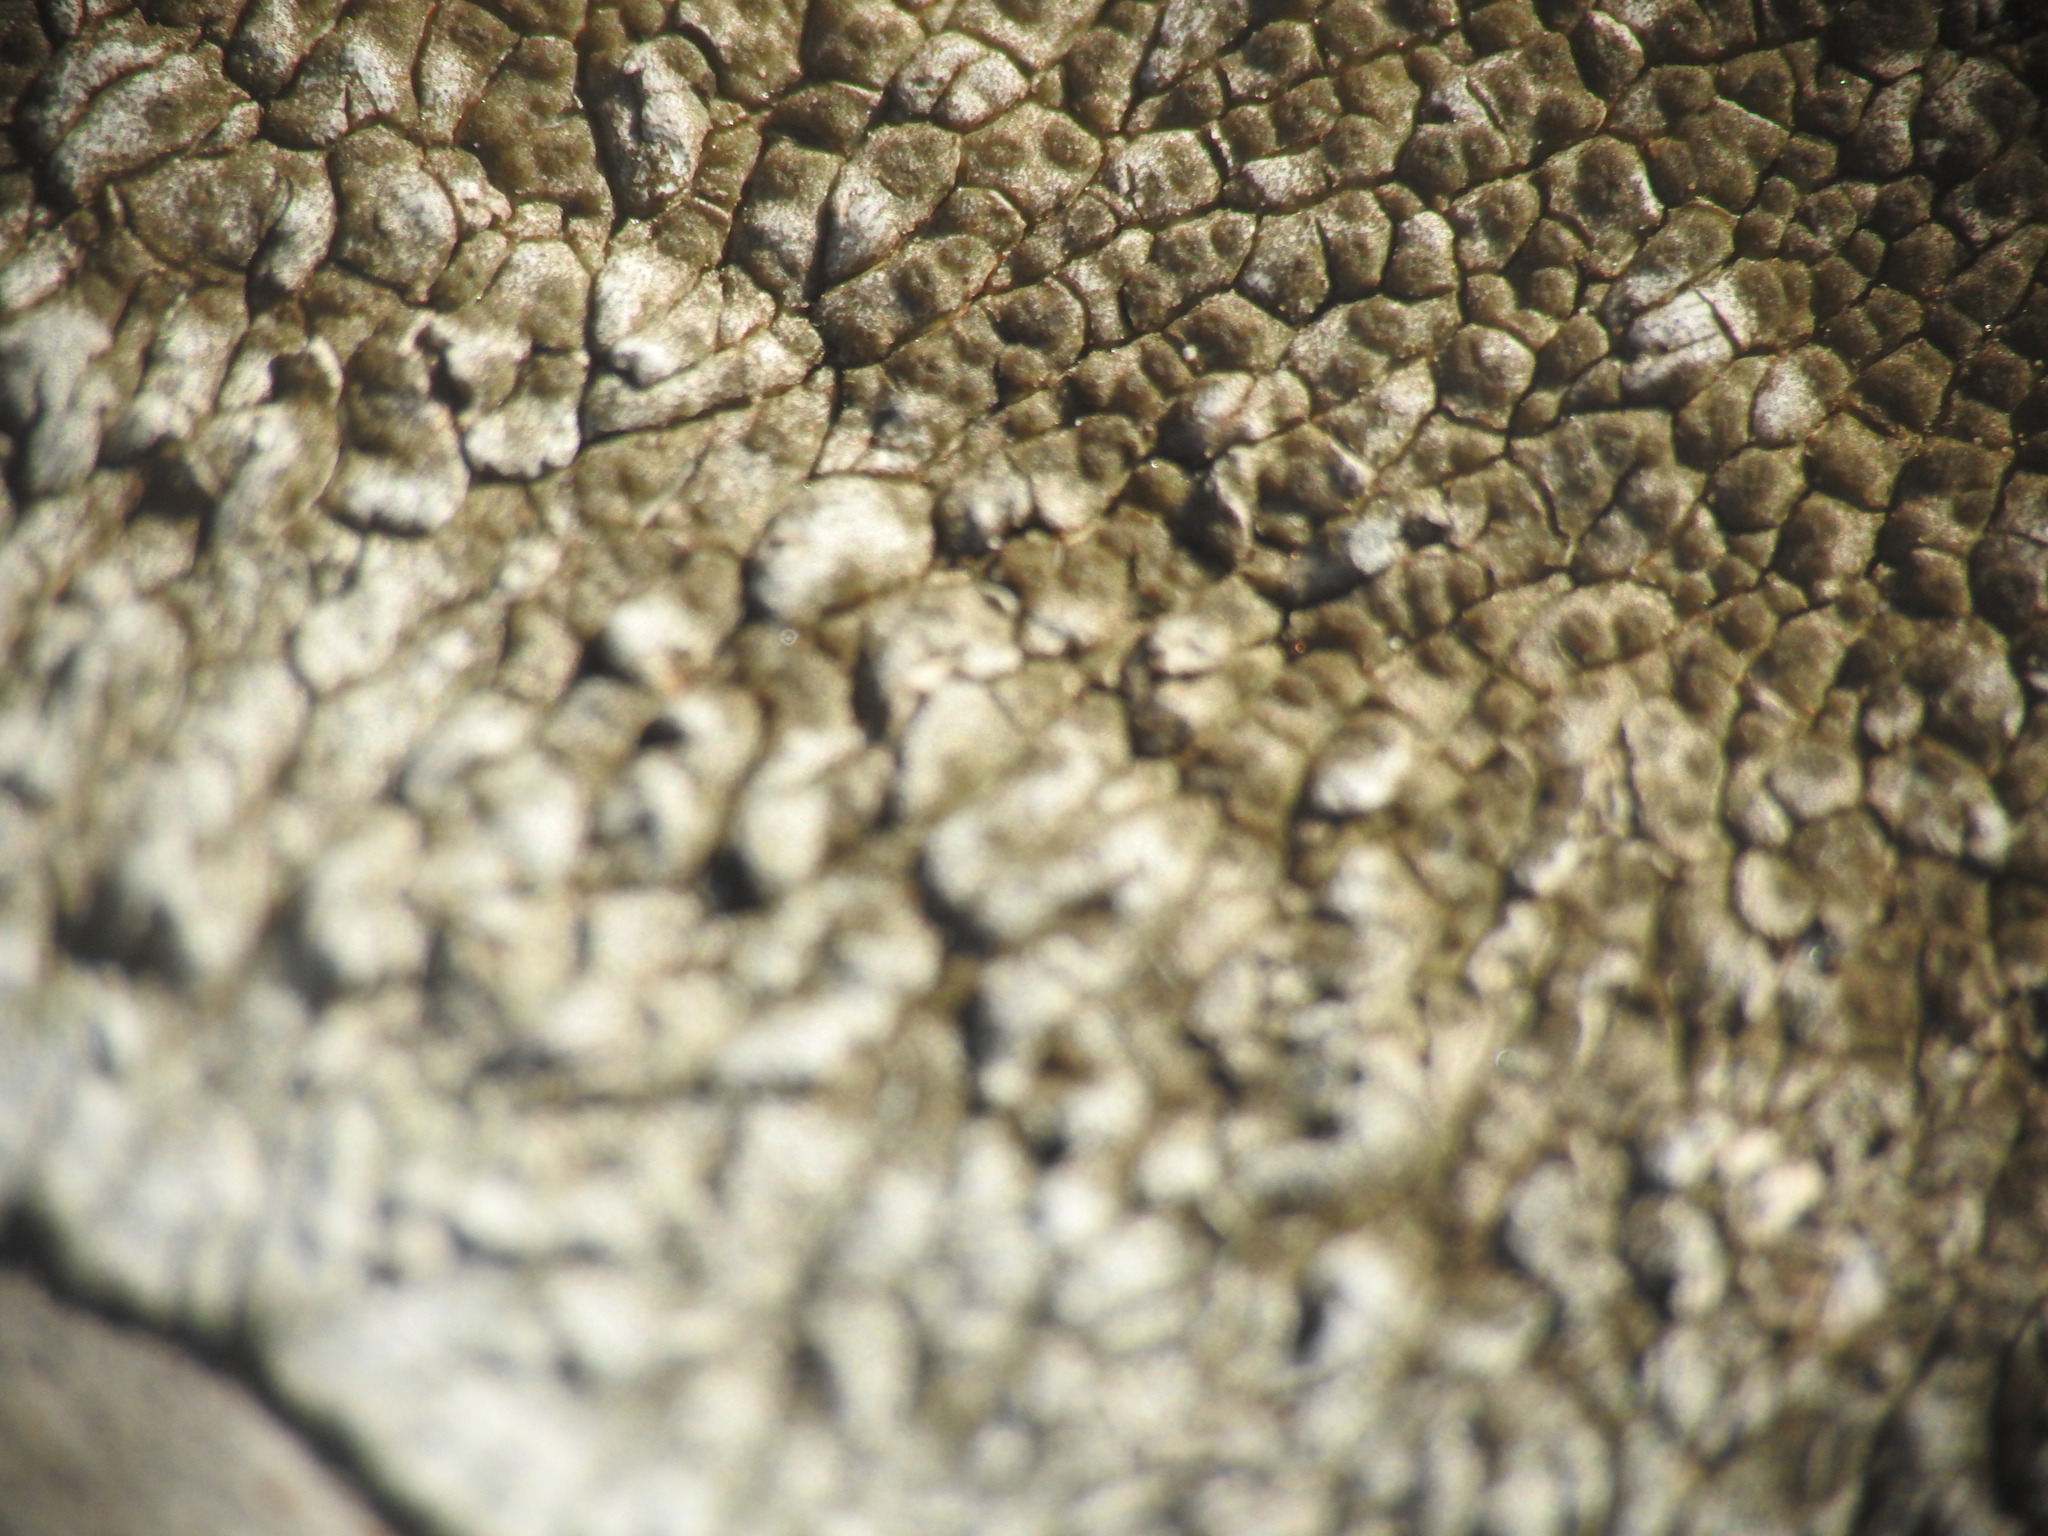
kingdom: Fungi
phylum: Ascomycota
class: Lecanoromycetes
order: Pertusariales
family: Megasporaceae
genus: Lobothallia
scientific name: Lobothallia radiosa
